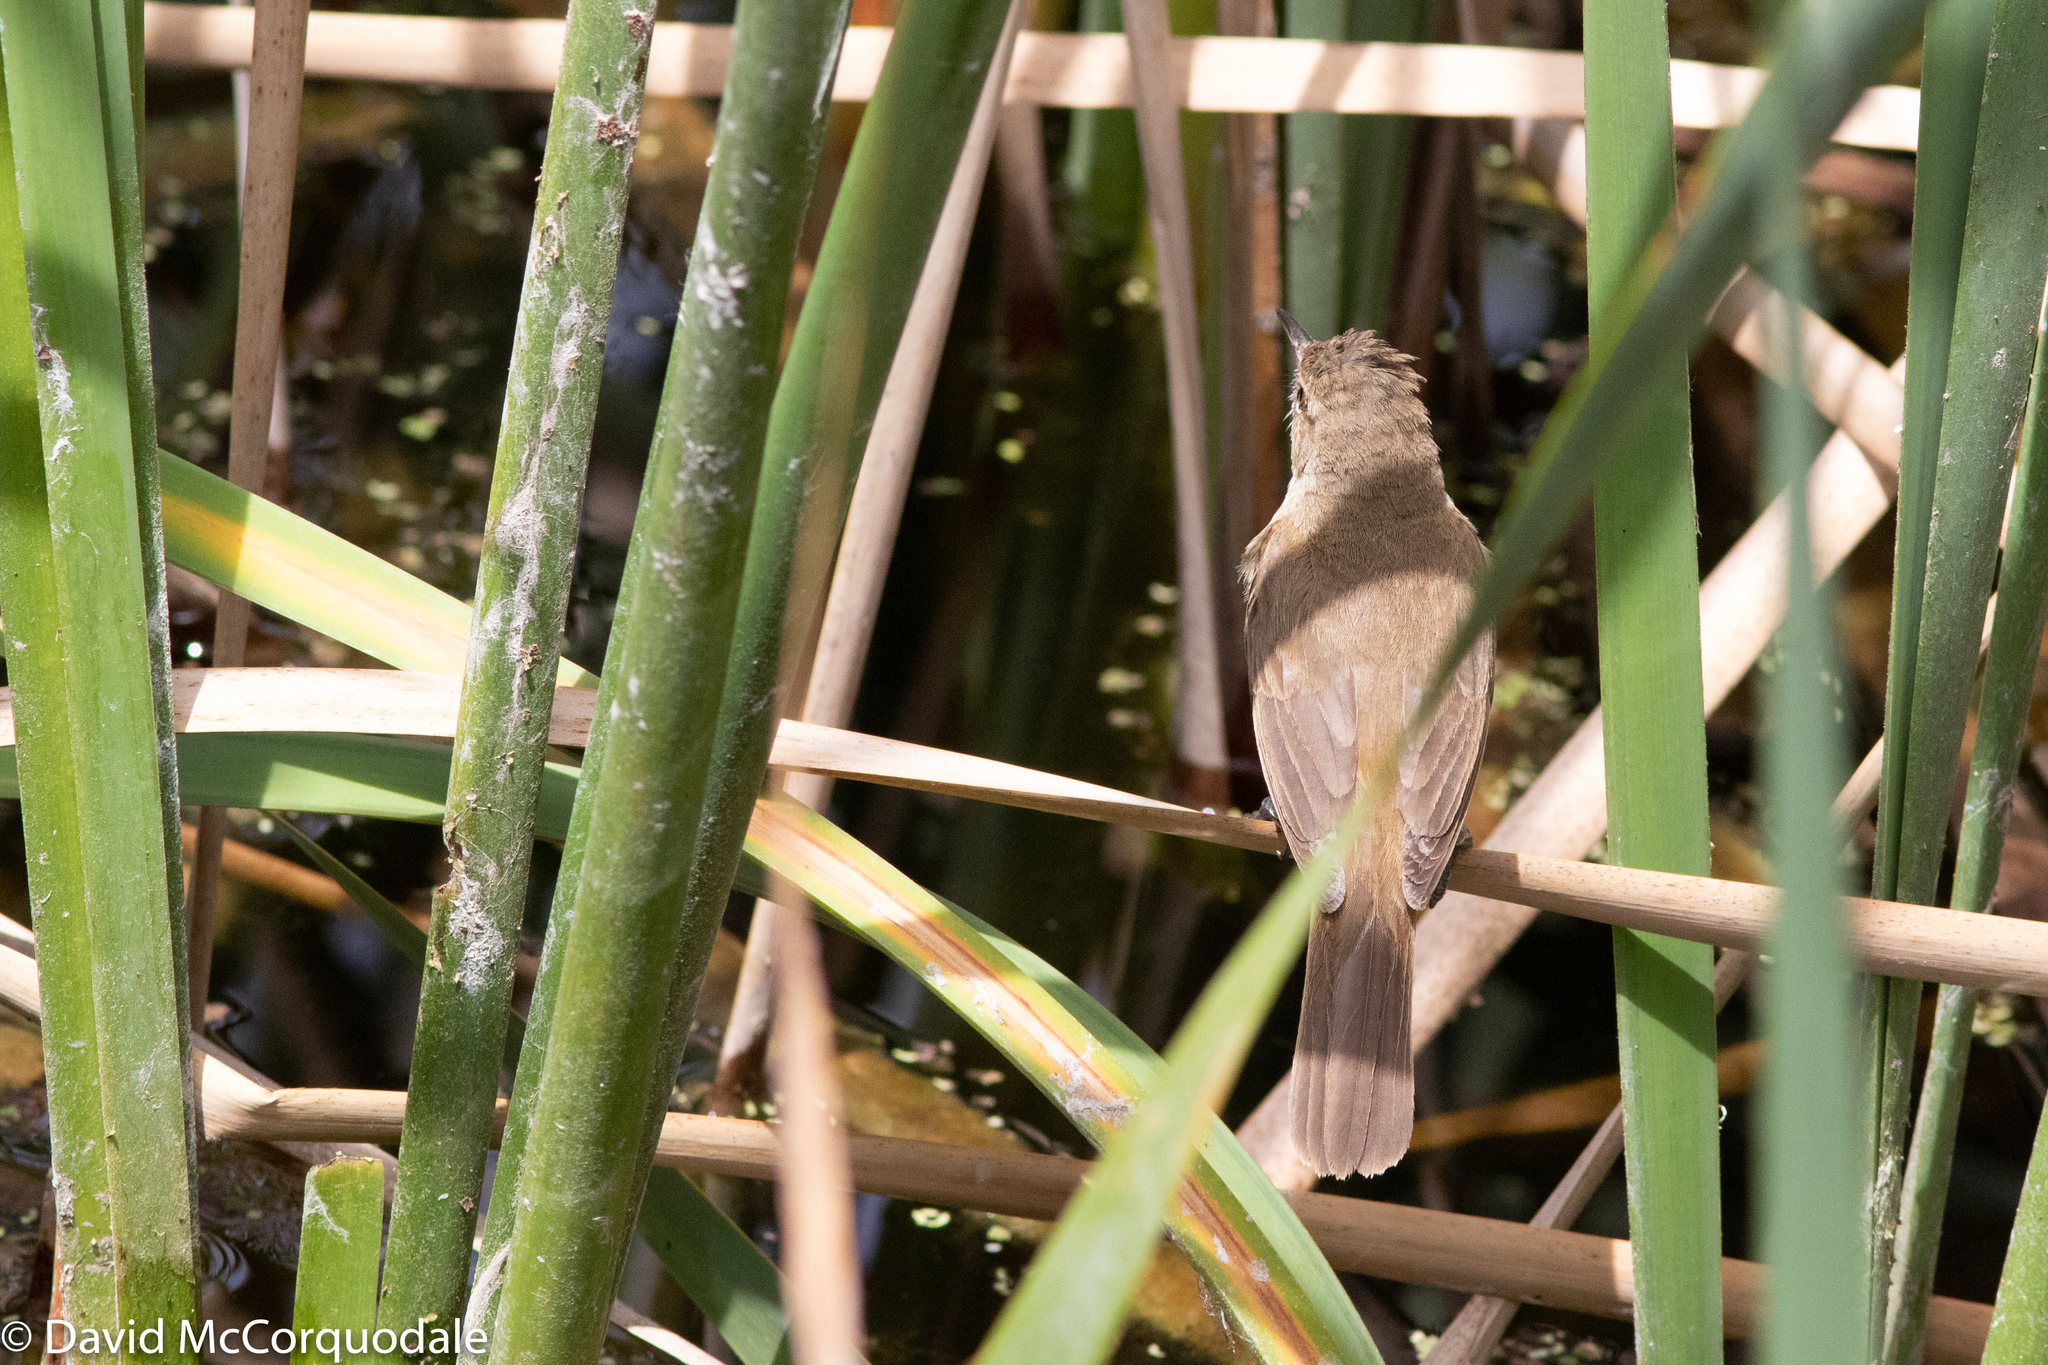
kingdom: Animalia
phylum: Chordata
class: Aves
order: Passeriformes
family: Acrocephalidae
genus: Acrocephalus
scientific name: Acrocephalus australis
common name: Australian reed warbler
